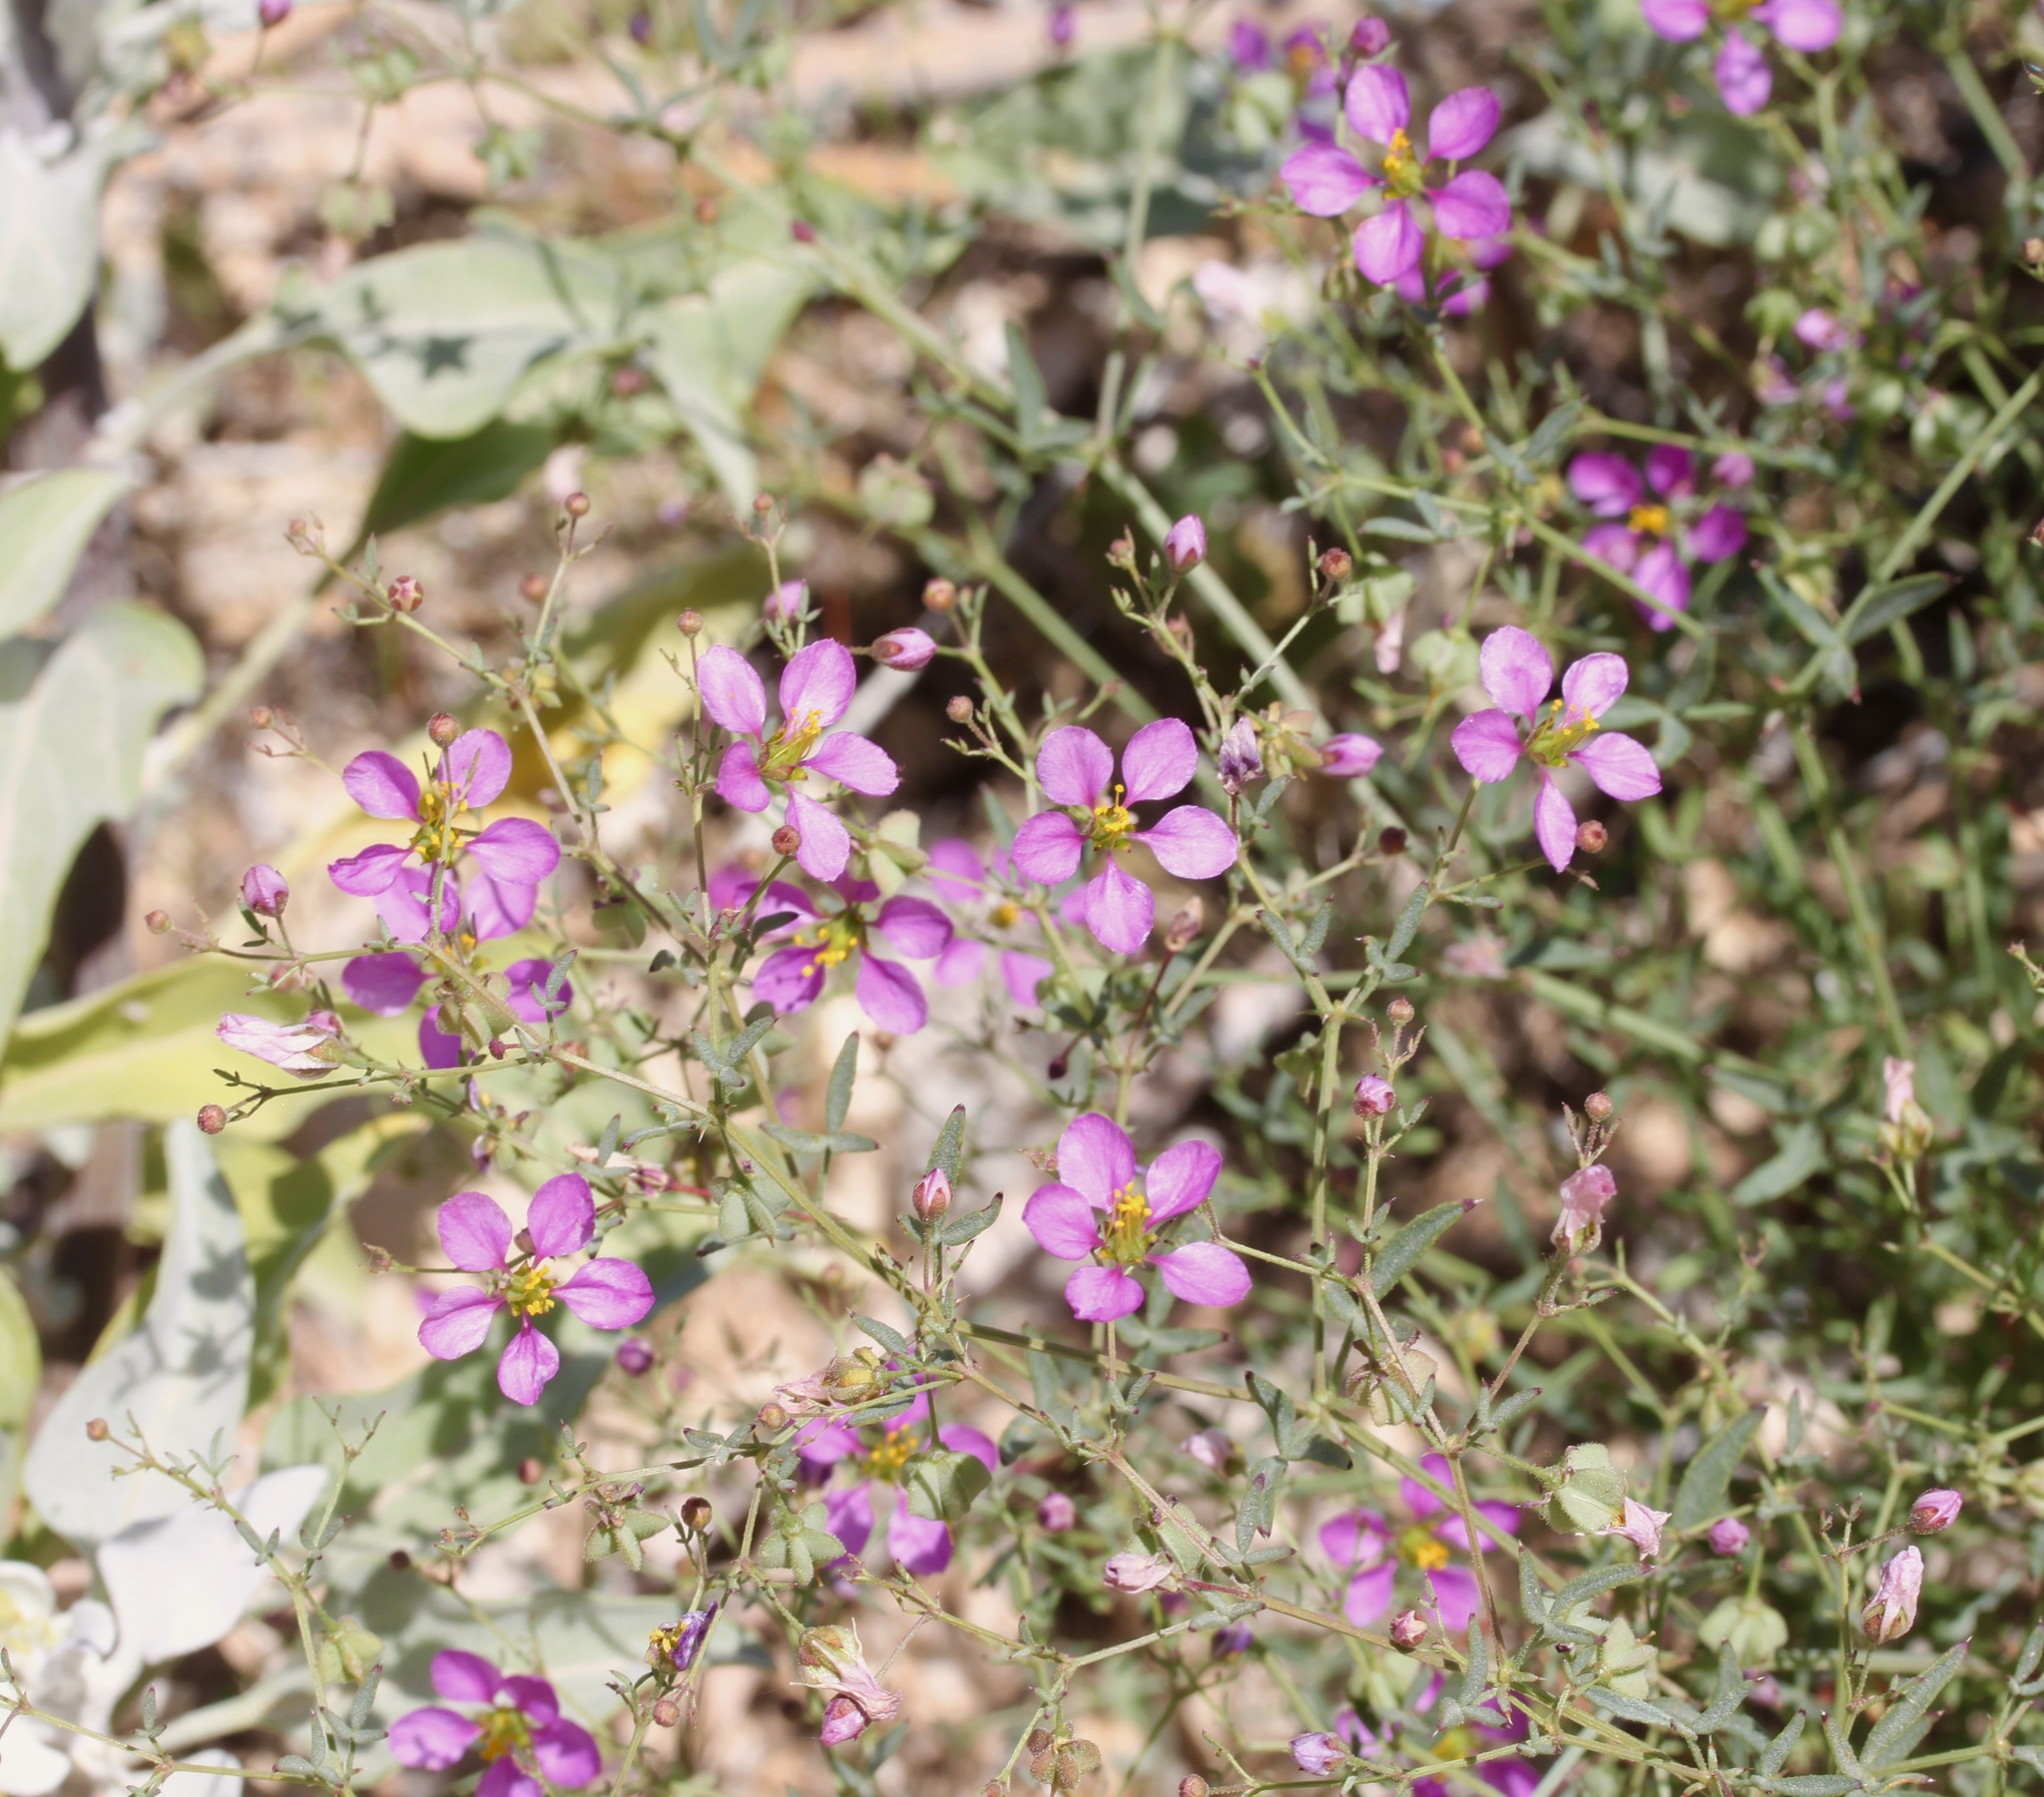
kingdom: Plantae
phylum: Tracheophyta
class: Magnoliopsida
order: Zygophyllales
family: Zygophyllaceae
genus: Fagonia
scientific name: Fagonia laevis
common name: California fagonbush
